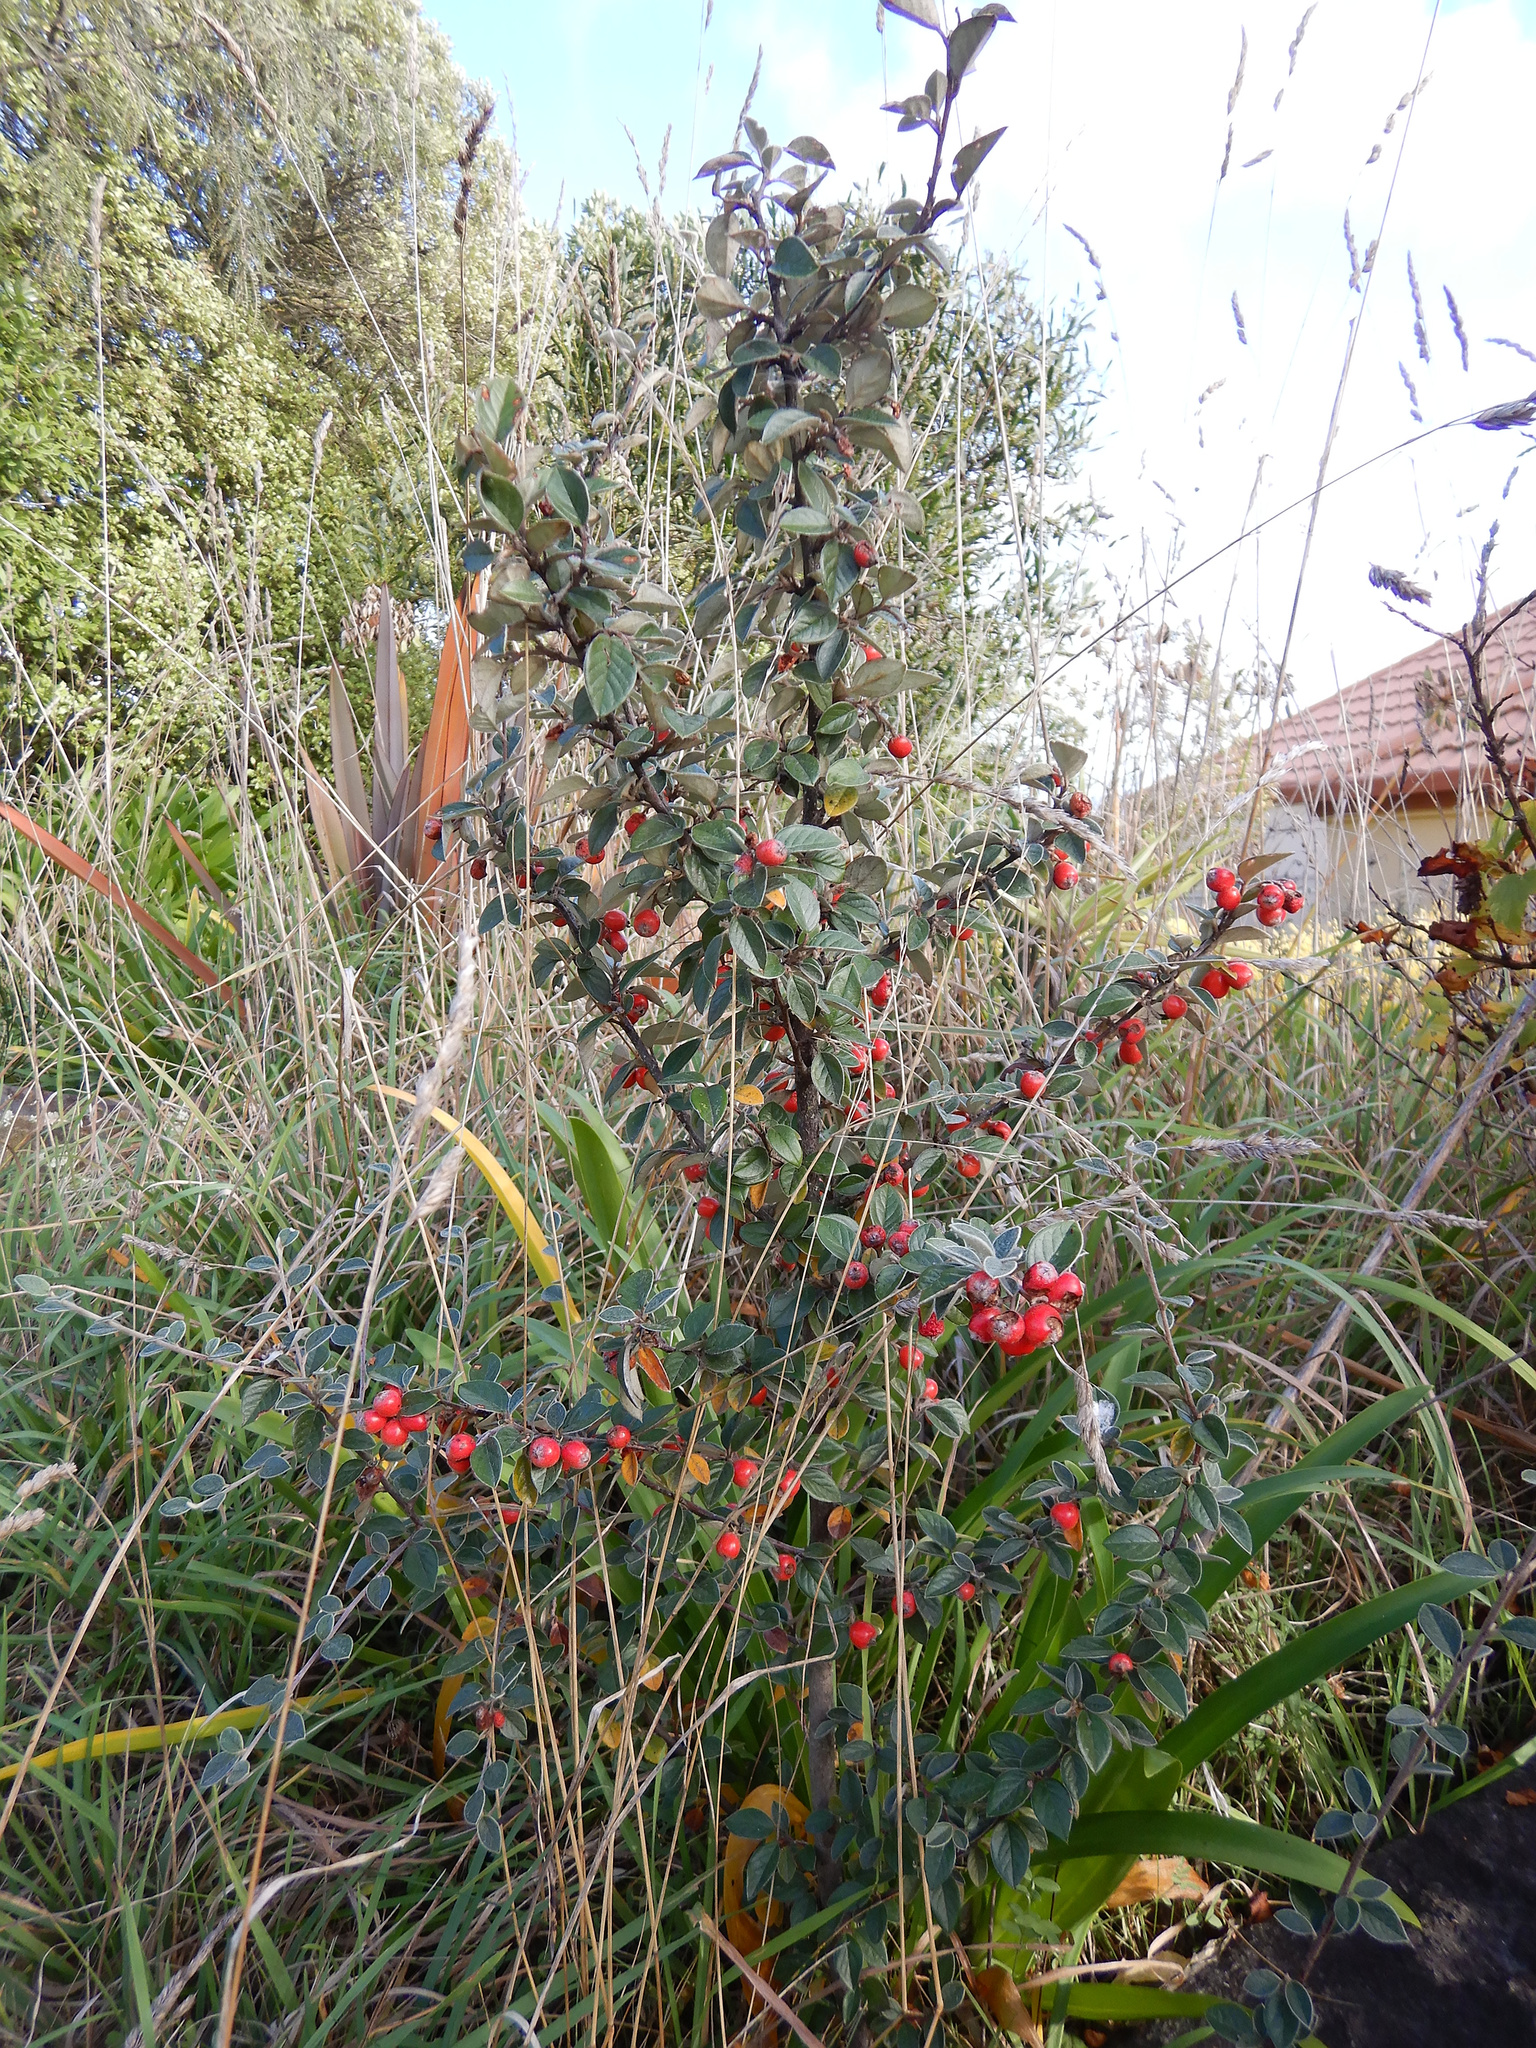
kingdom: Plantae
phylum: Tracheophyta
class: Magnoliopsida
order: Rosales
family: Rosaceae
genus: Cotoneaster
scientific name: Cotoneaster franchetii
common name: Franchet's cotoneaster
